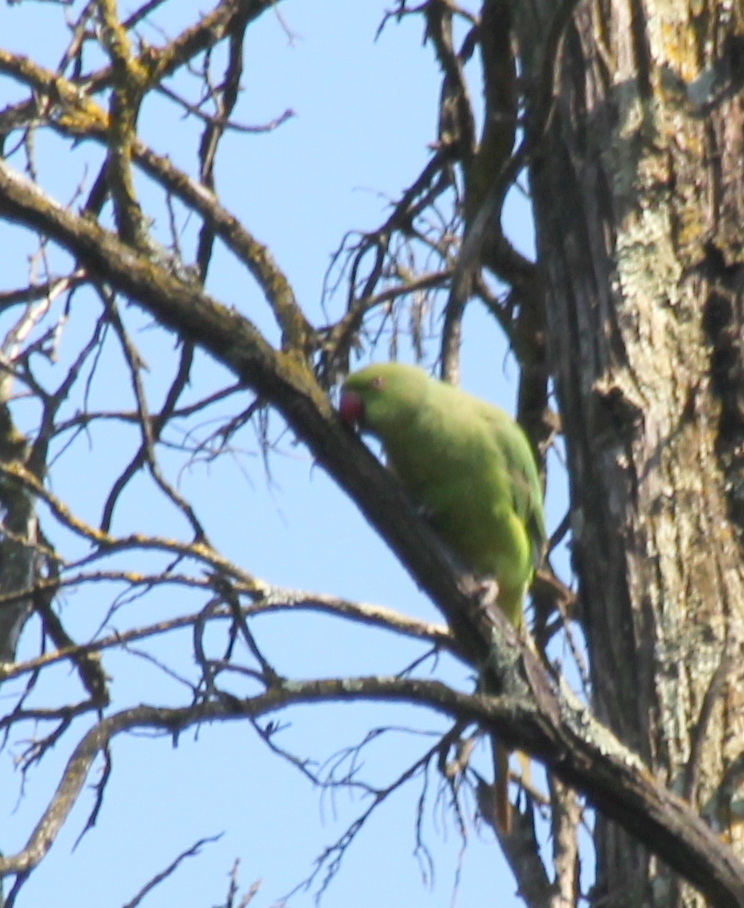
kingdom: Animalia
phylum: Chordata
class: Aves
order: Psittaciformes
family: Psittacidae
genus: Psittacula
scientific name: Psittacula krameri
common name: Rose-ringed parakeet
